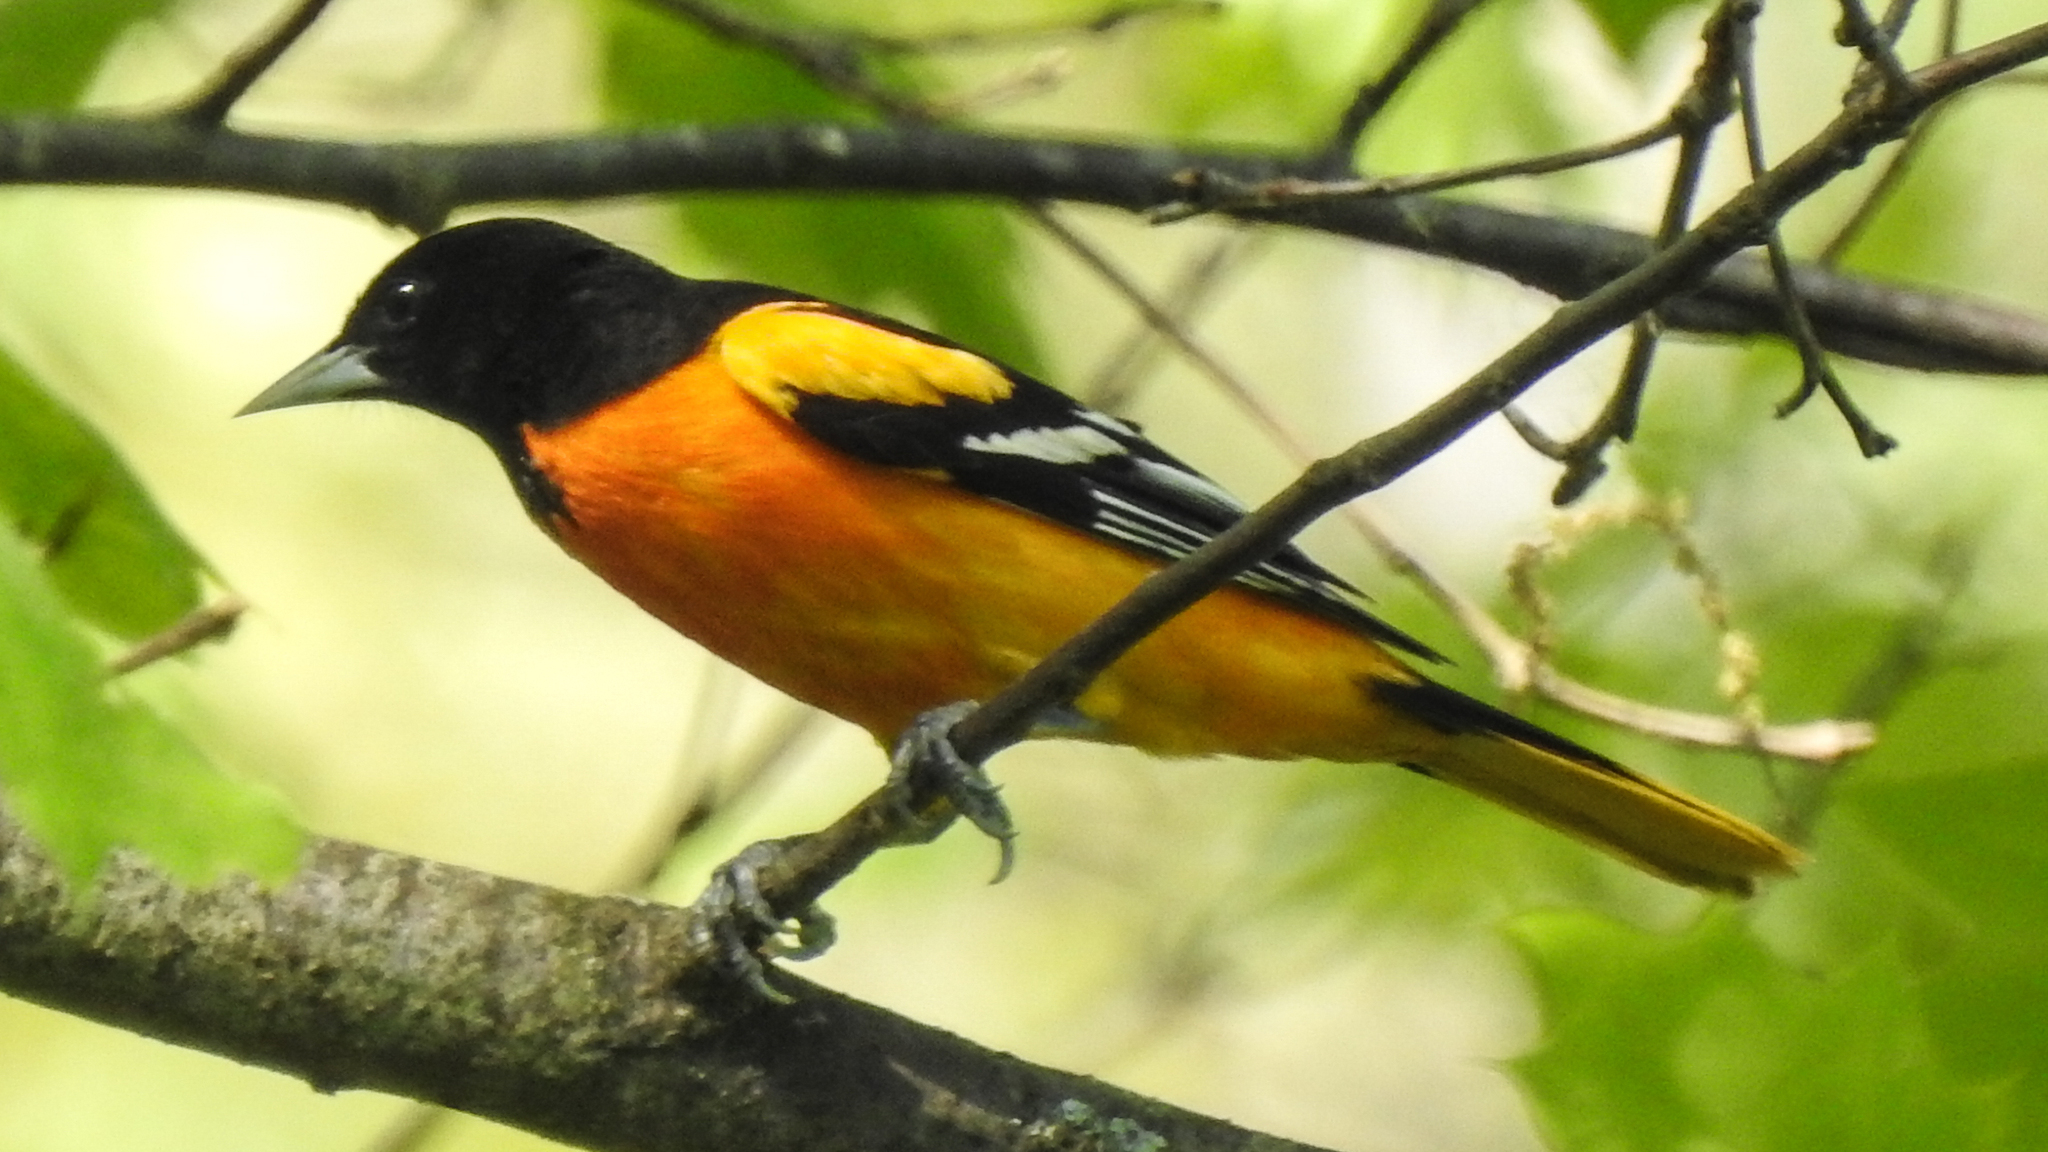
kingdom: Animalia
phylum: Chordata
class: Aves
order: Passeriformes
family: Icteridae
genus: Icterus
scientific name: Icterus galbula
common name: Baltimore oriole
